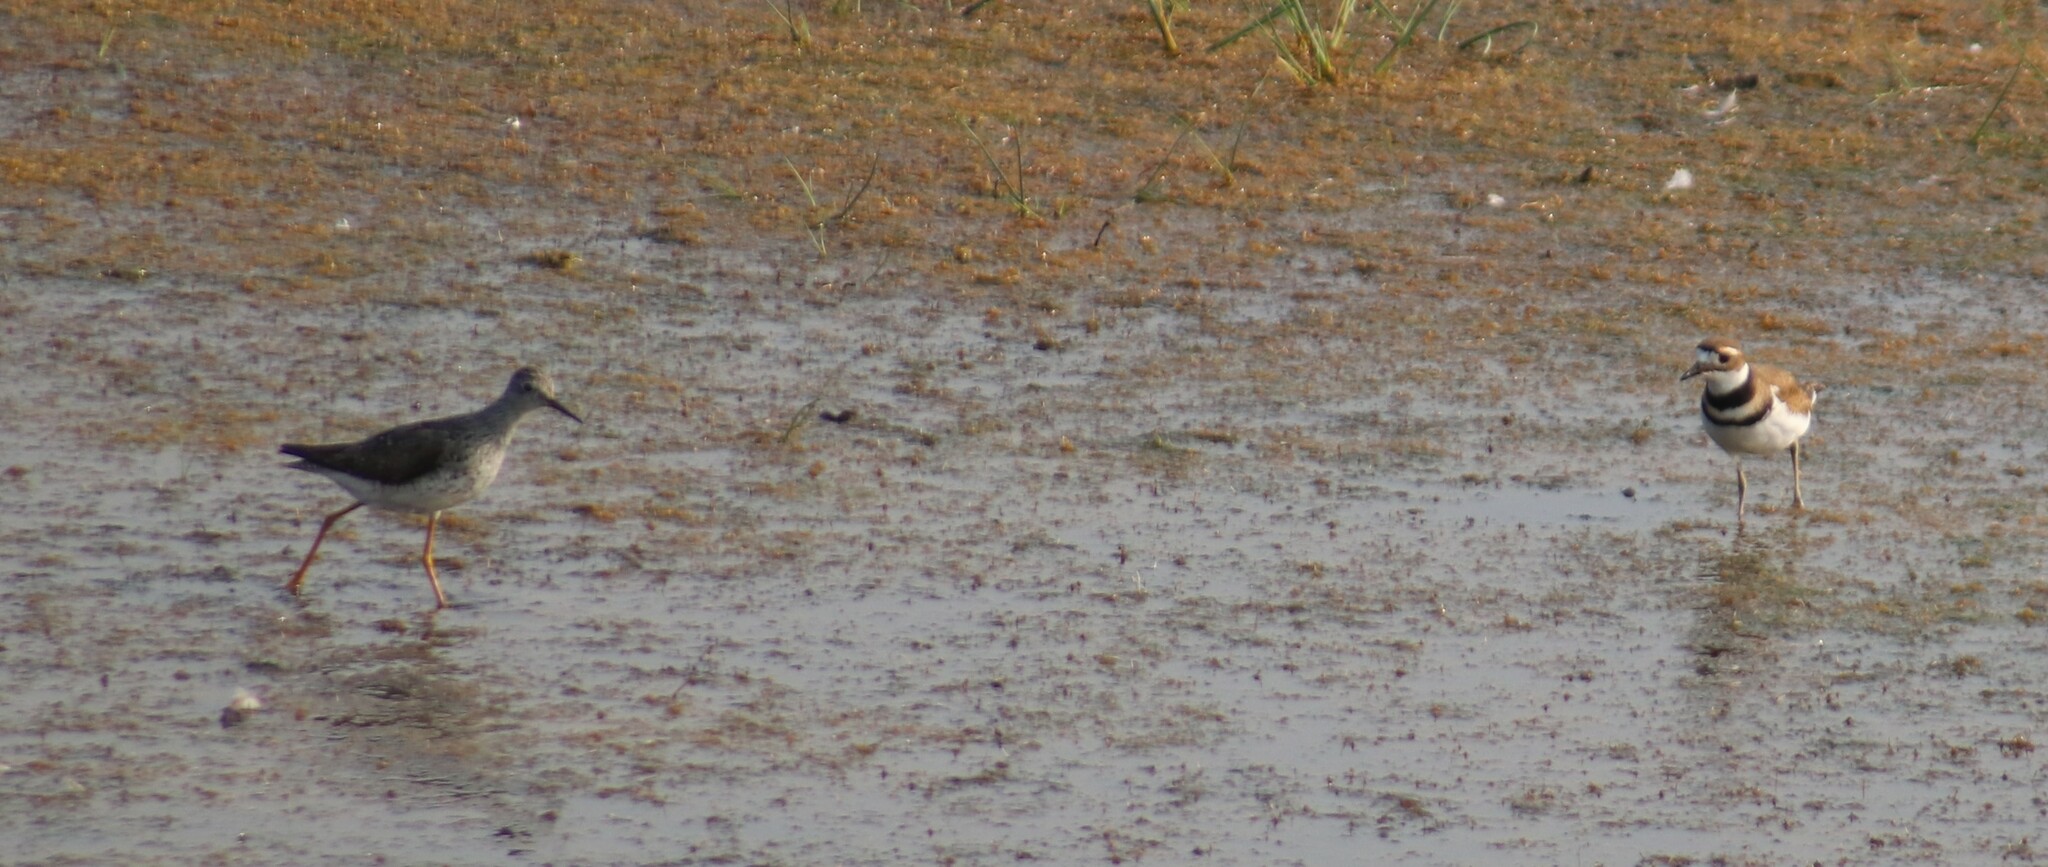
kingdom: Animalia
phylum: Chordata
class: Aves
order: Charadriiformes
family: Charadriidae
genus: Charadrius
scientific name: Charadrius vociferus
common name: Killdeer
